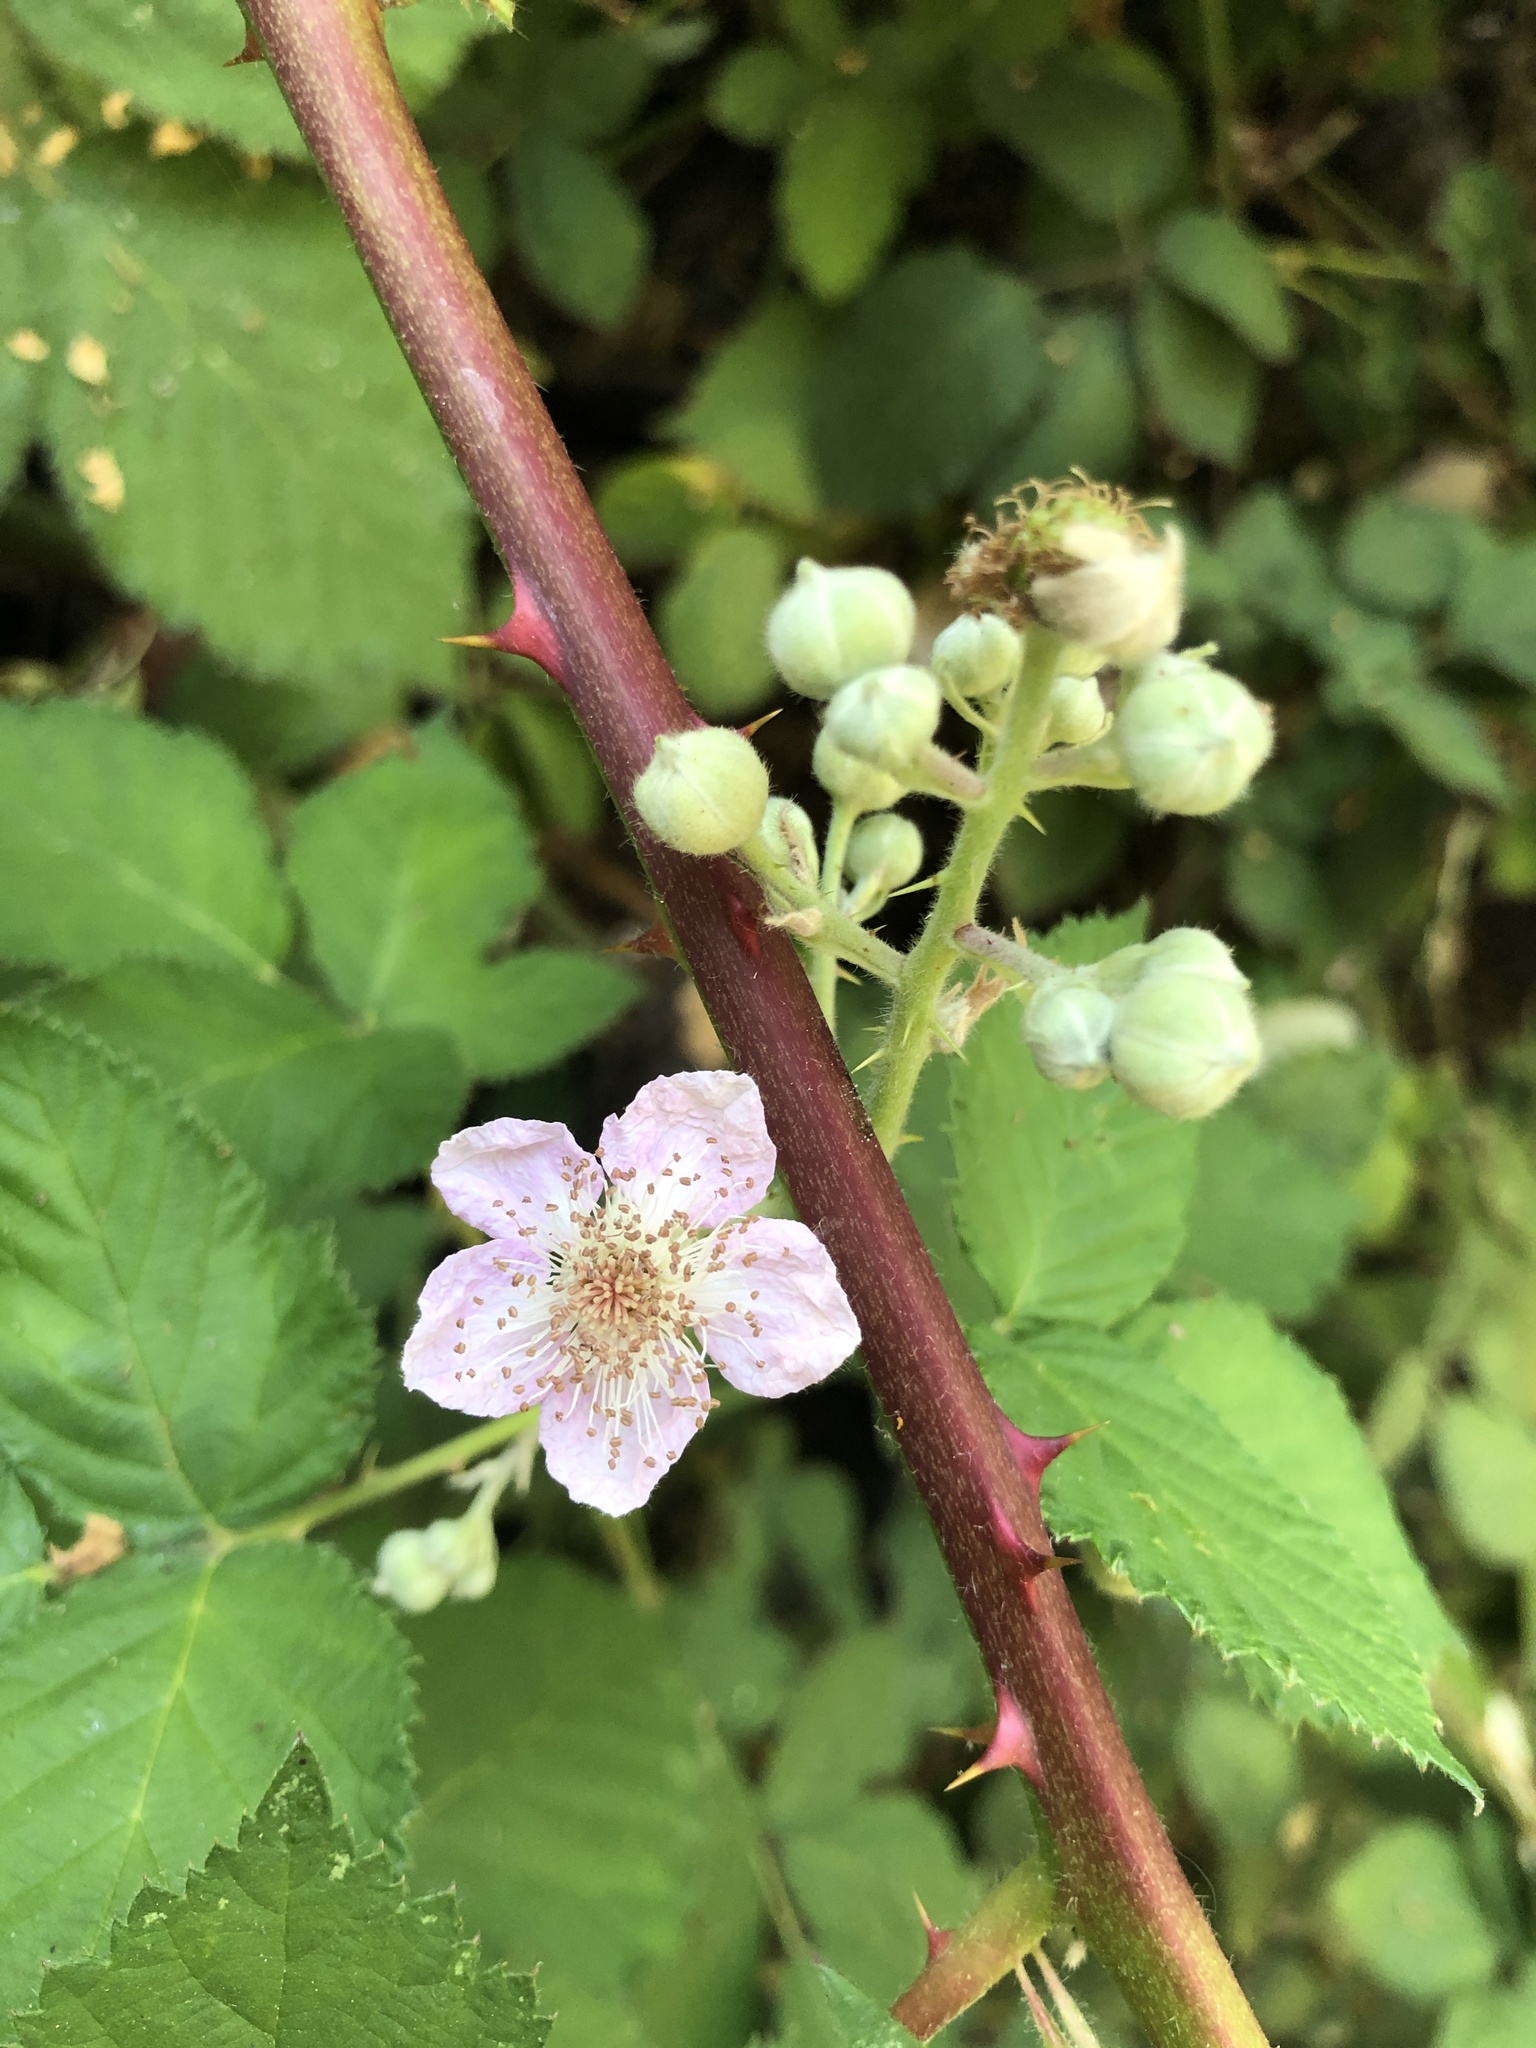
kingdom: Plantae
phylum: Tracheophyta
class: Magnoliopsida
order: Rosales
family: Rosaceae
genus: Rubus
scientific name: Rubus bifrons
